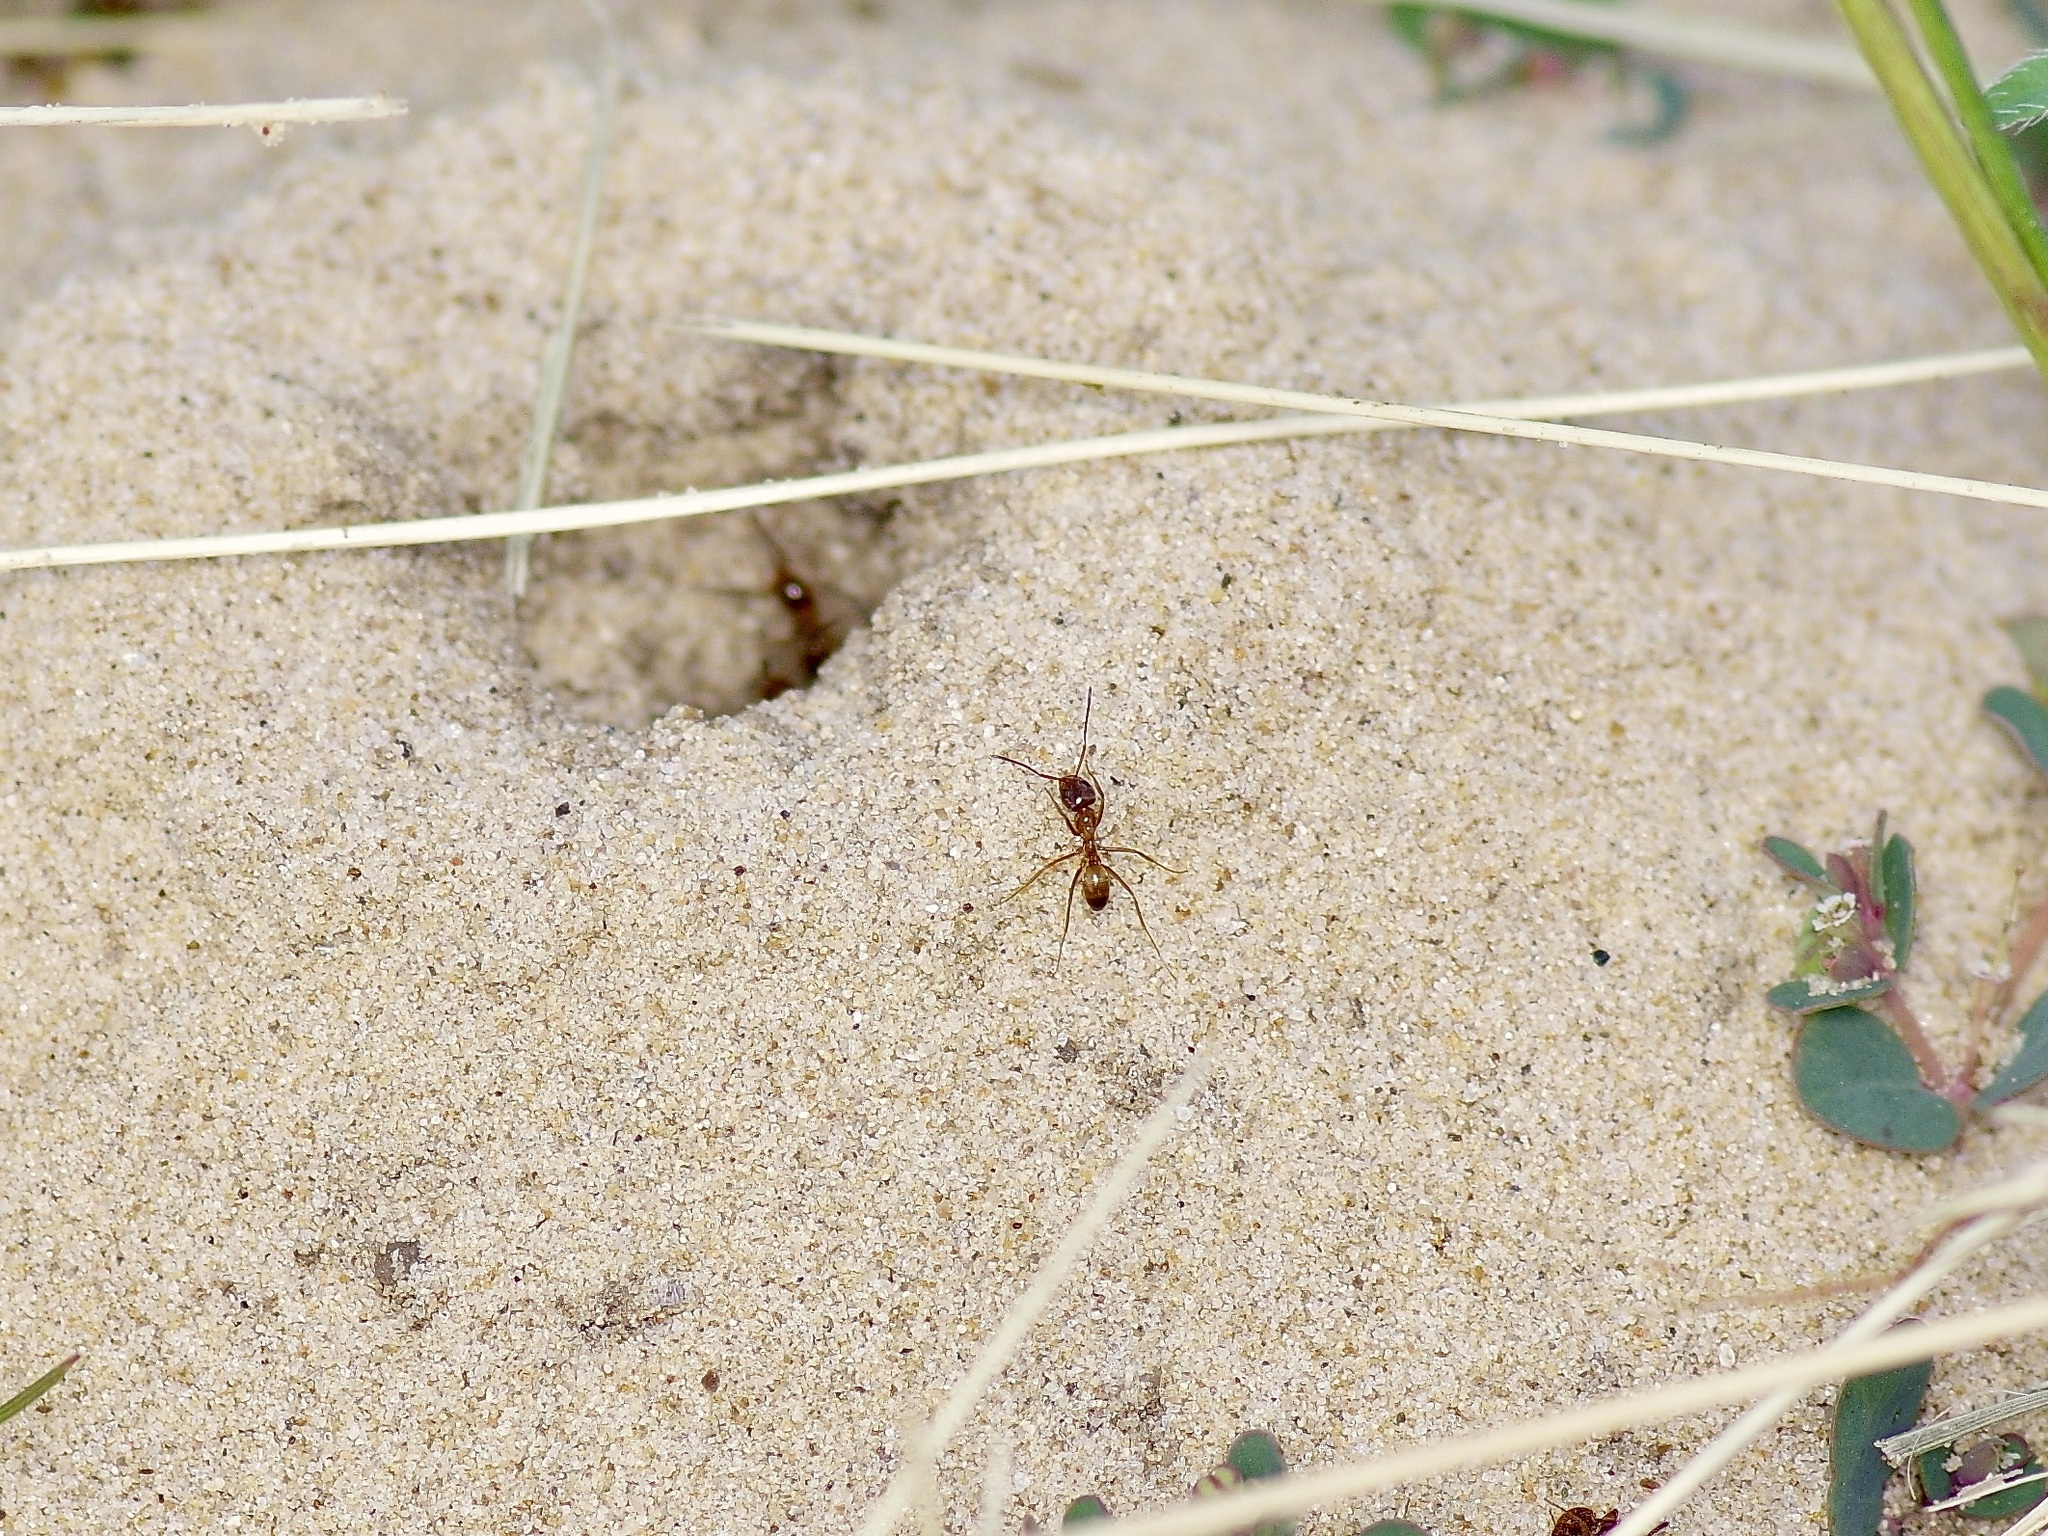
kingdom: Animalia
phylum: Arthropoda
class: Insecta
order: Hymenoptera
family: Formicidae
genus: Dorymyrmex
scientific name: Dorymyrmex flavus
